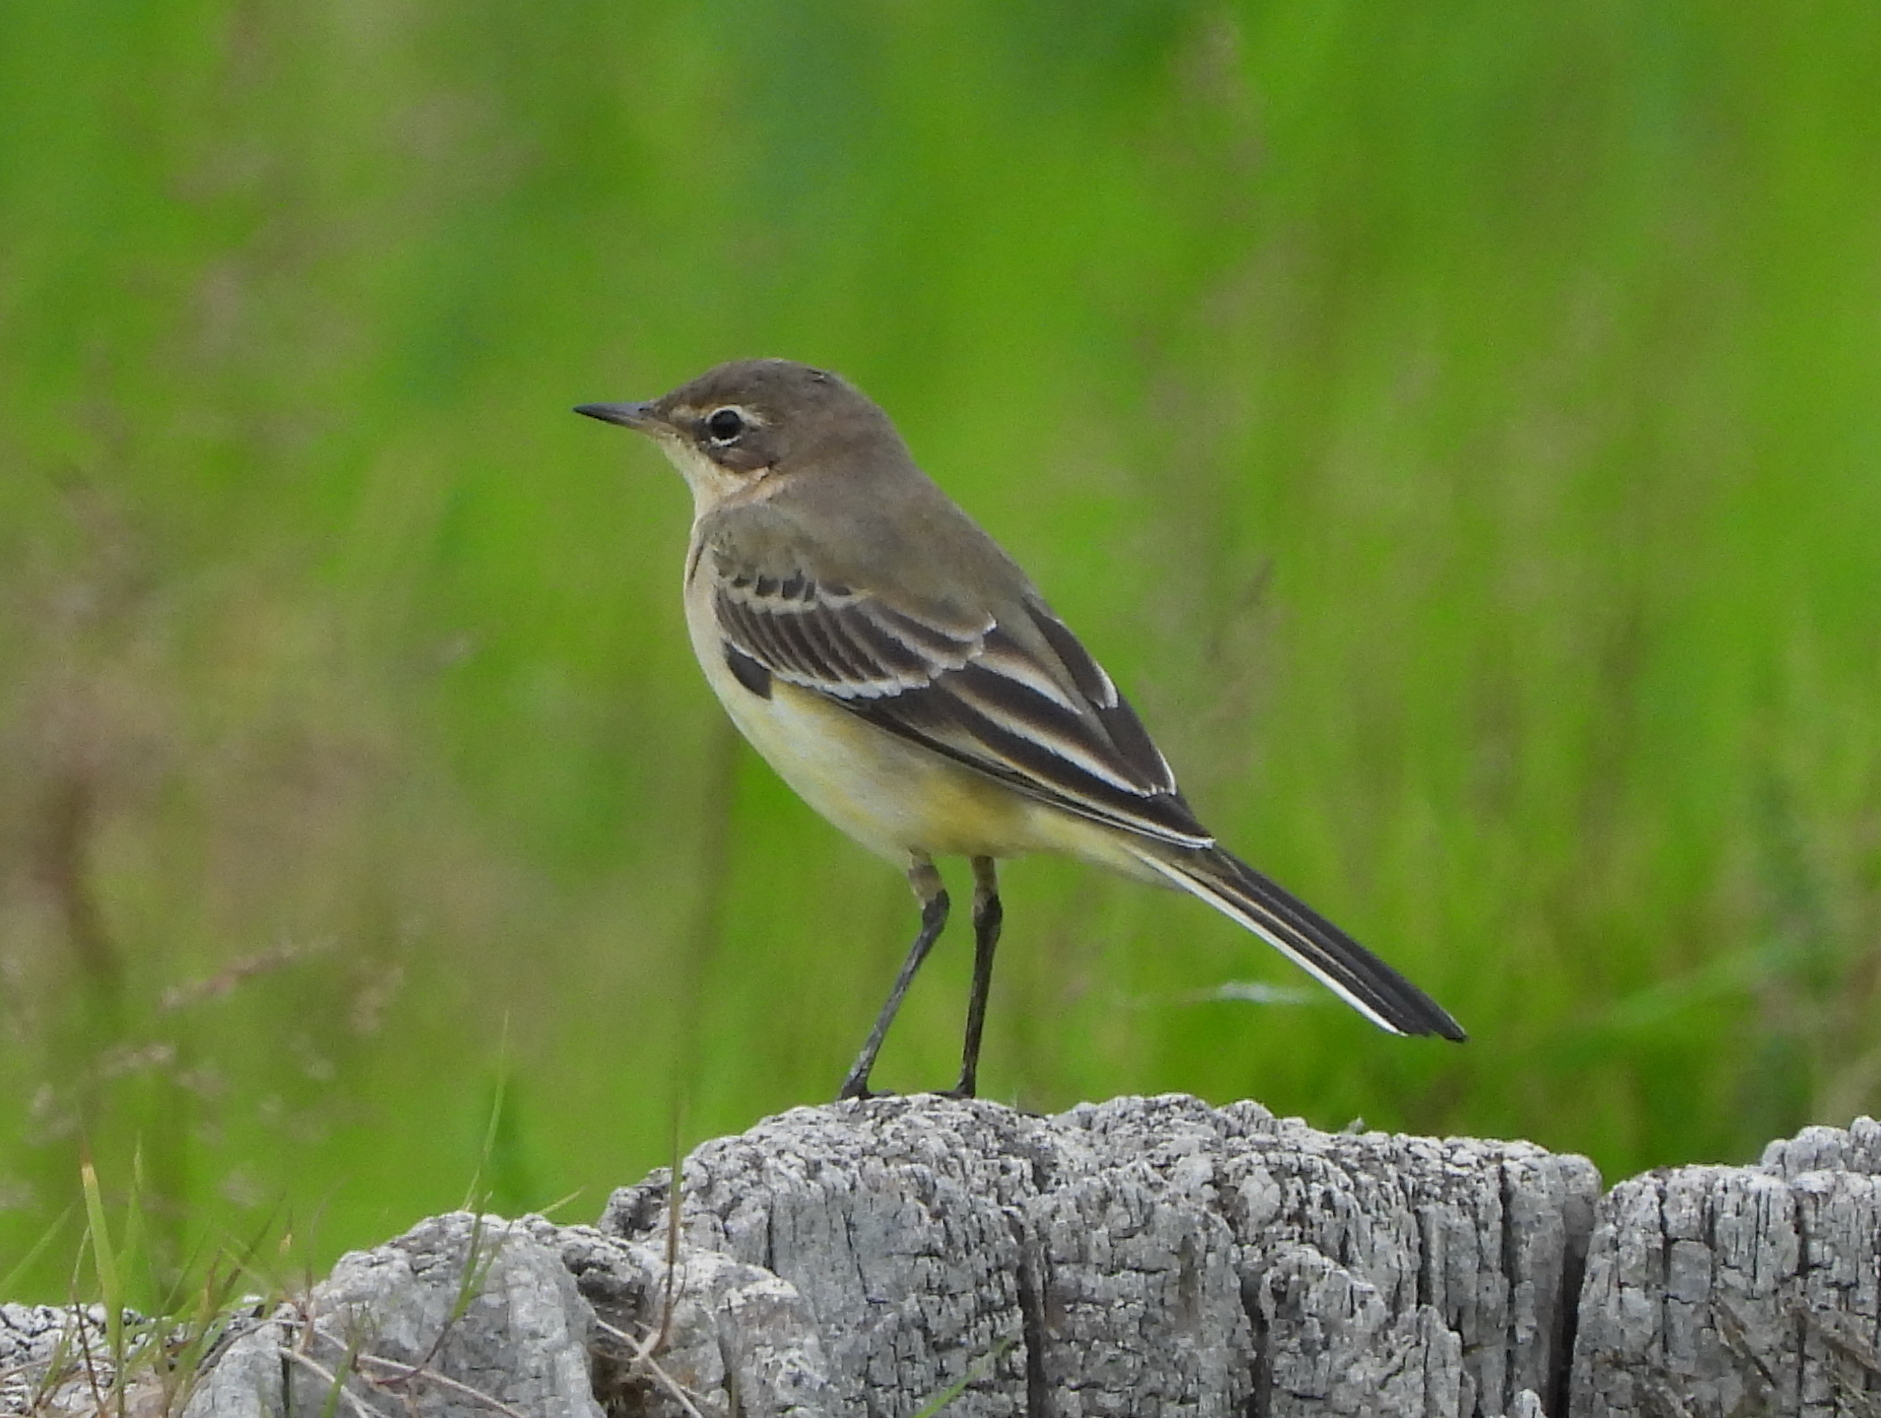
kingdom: Animalia
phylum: Chordata
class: Aves
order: Passeriformes
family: Motacillidae
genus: Motacilla
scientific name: Motacilla flava
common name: Western yellow wagtail
